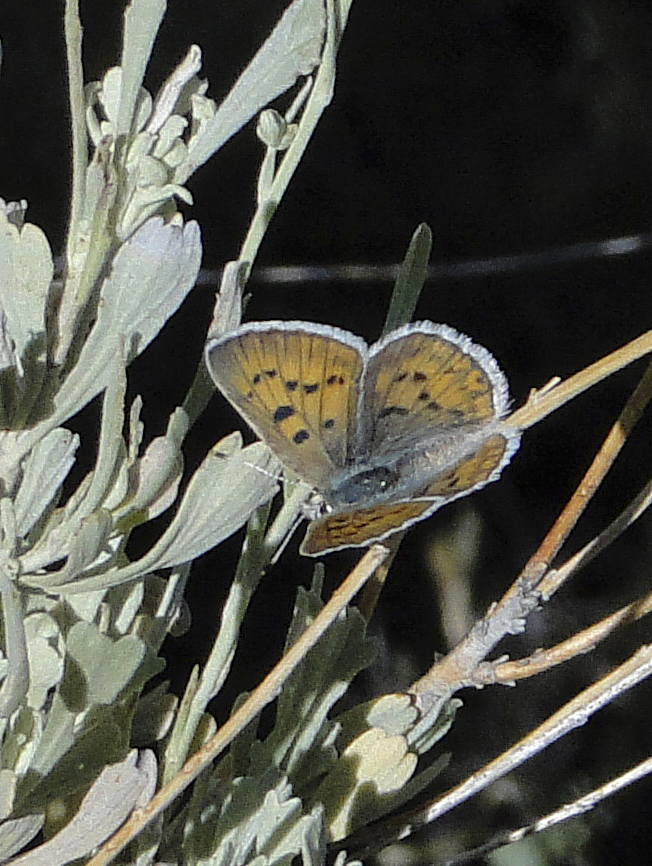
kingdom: Animalia
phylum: Arthropoda
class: Insecta
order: Lepidoptera
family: Lycaenidae
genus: Tharsalea
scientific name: Tharsalea heteronea
